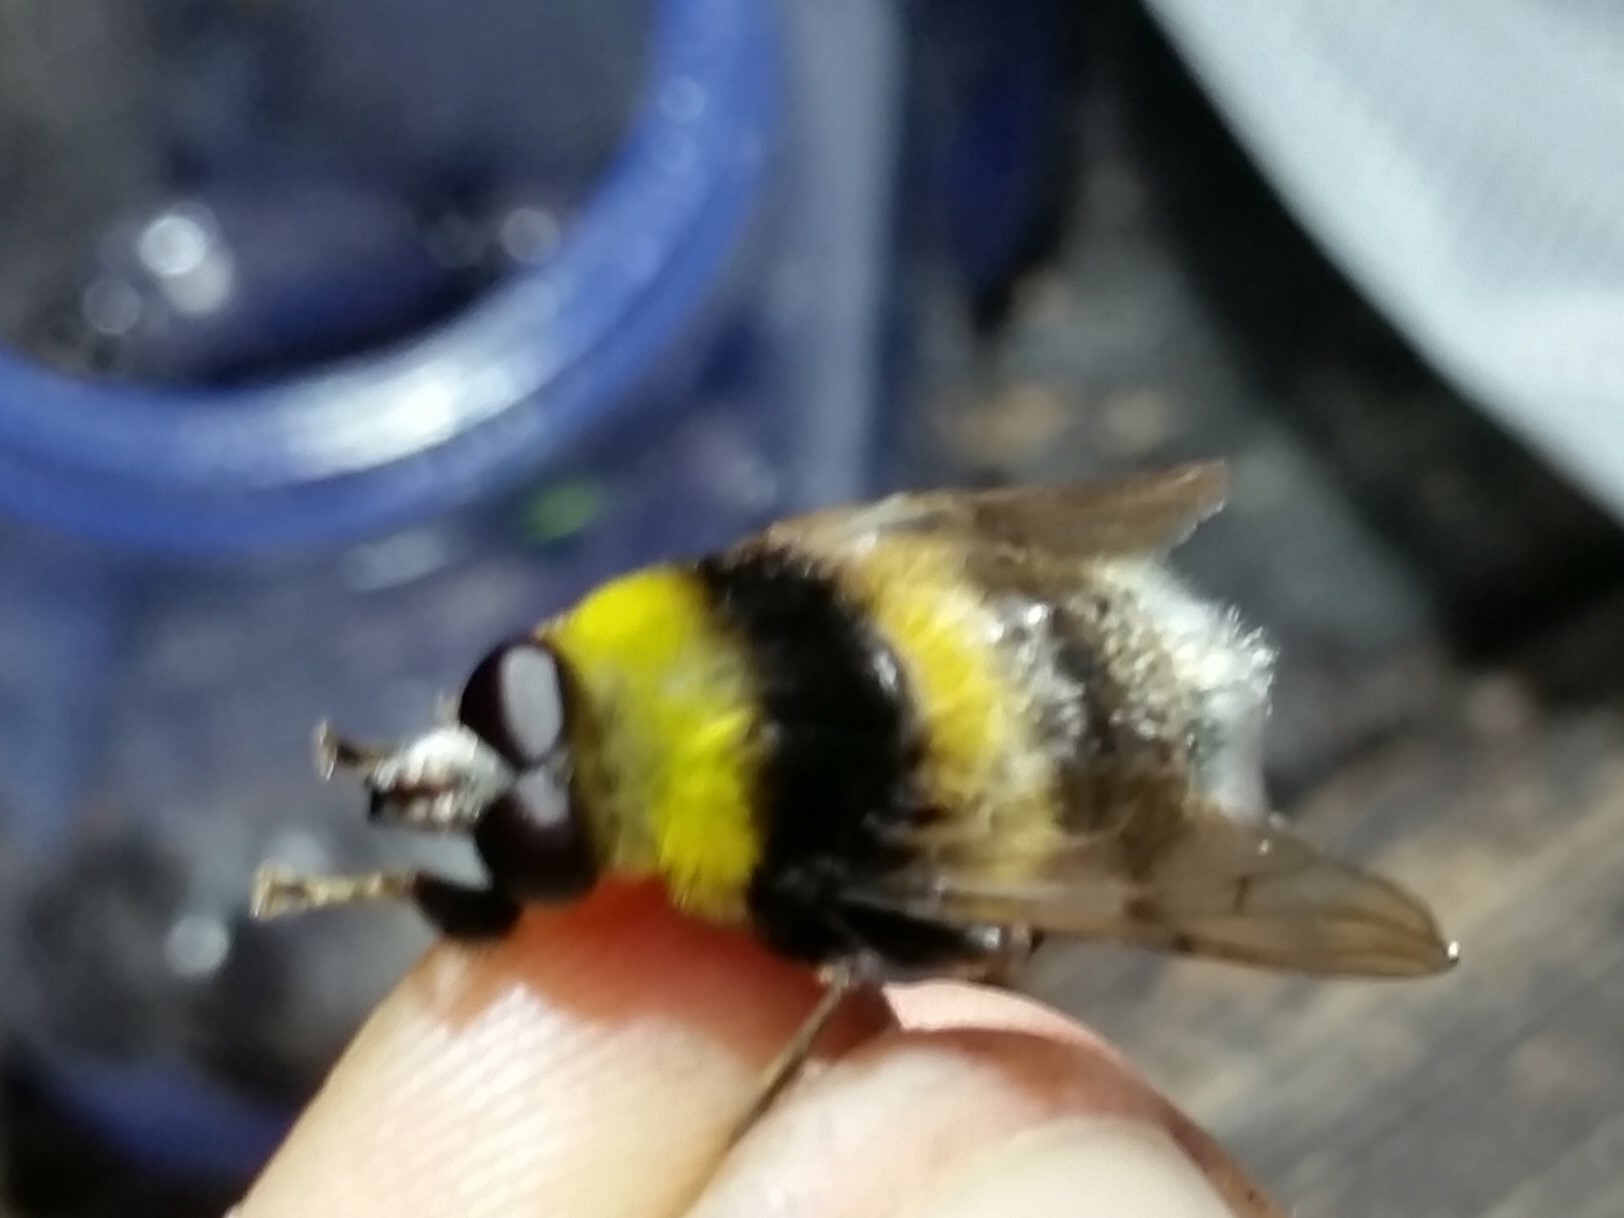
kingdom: Animalia
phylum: Arthropoda
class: Insecta
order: Diptera
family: Syrphidae
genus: Sericomyia
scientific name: Sericomyia bombiformis
